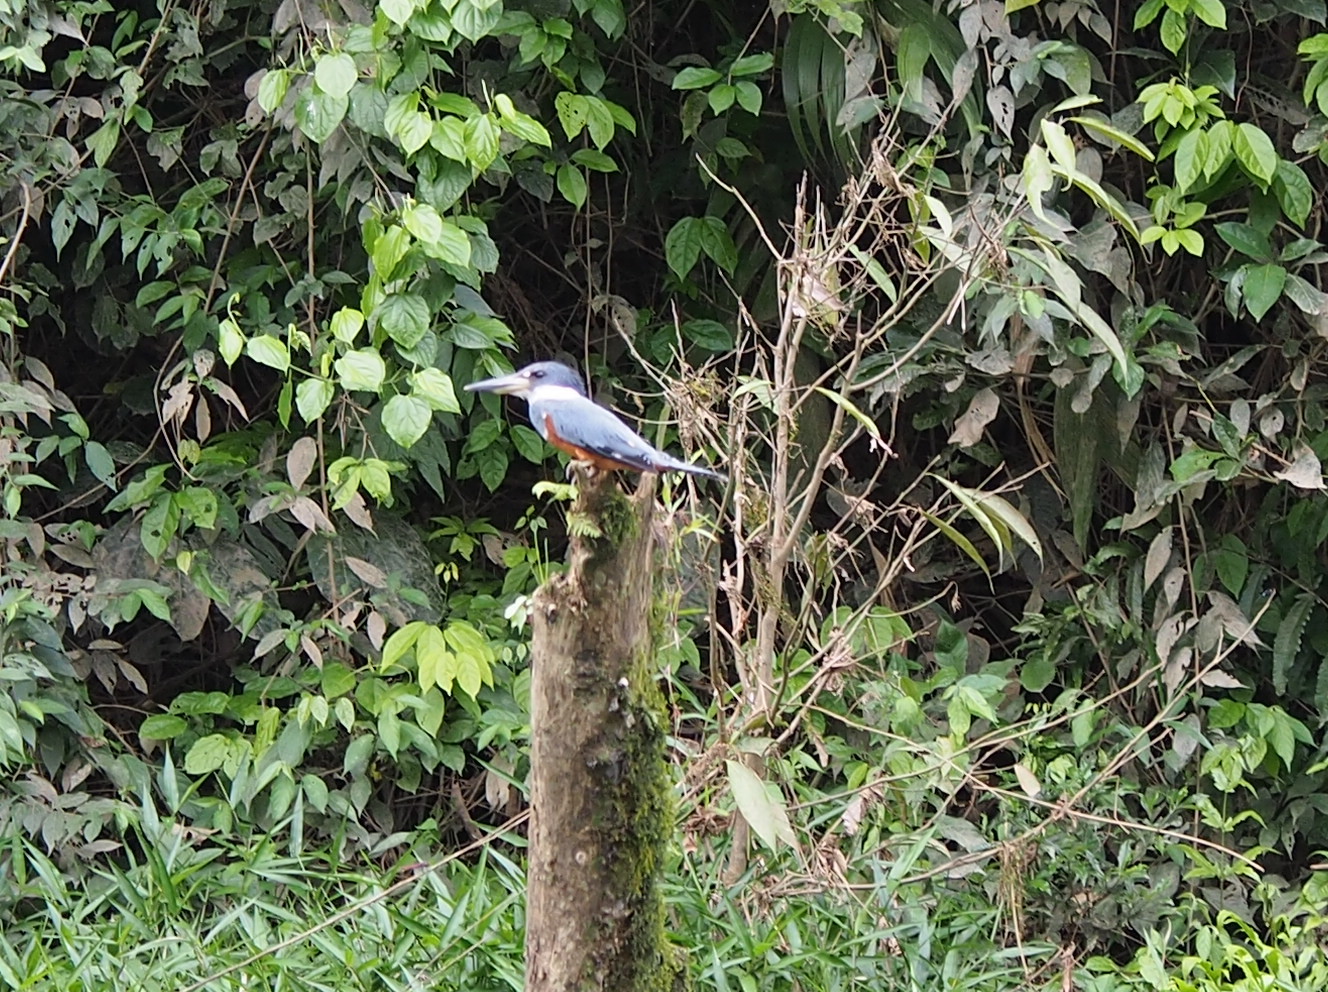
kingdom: Animalia
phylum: Chordata
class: Aves
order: Coraciiformes
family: Alcedinidae
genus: Megaceryle
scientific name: Megaceryle torquata
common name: Ringed kingfisher
